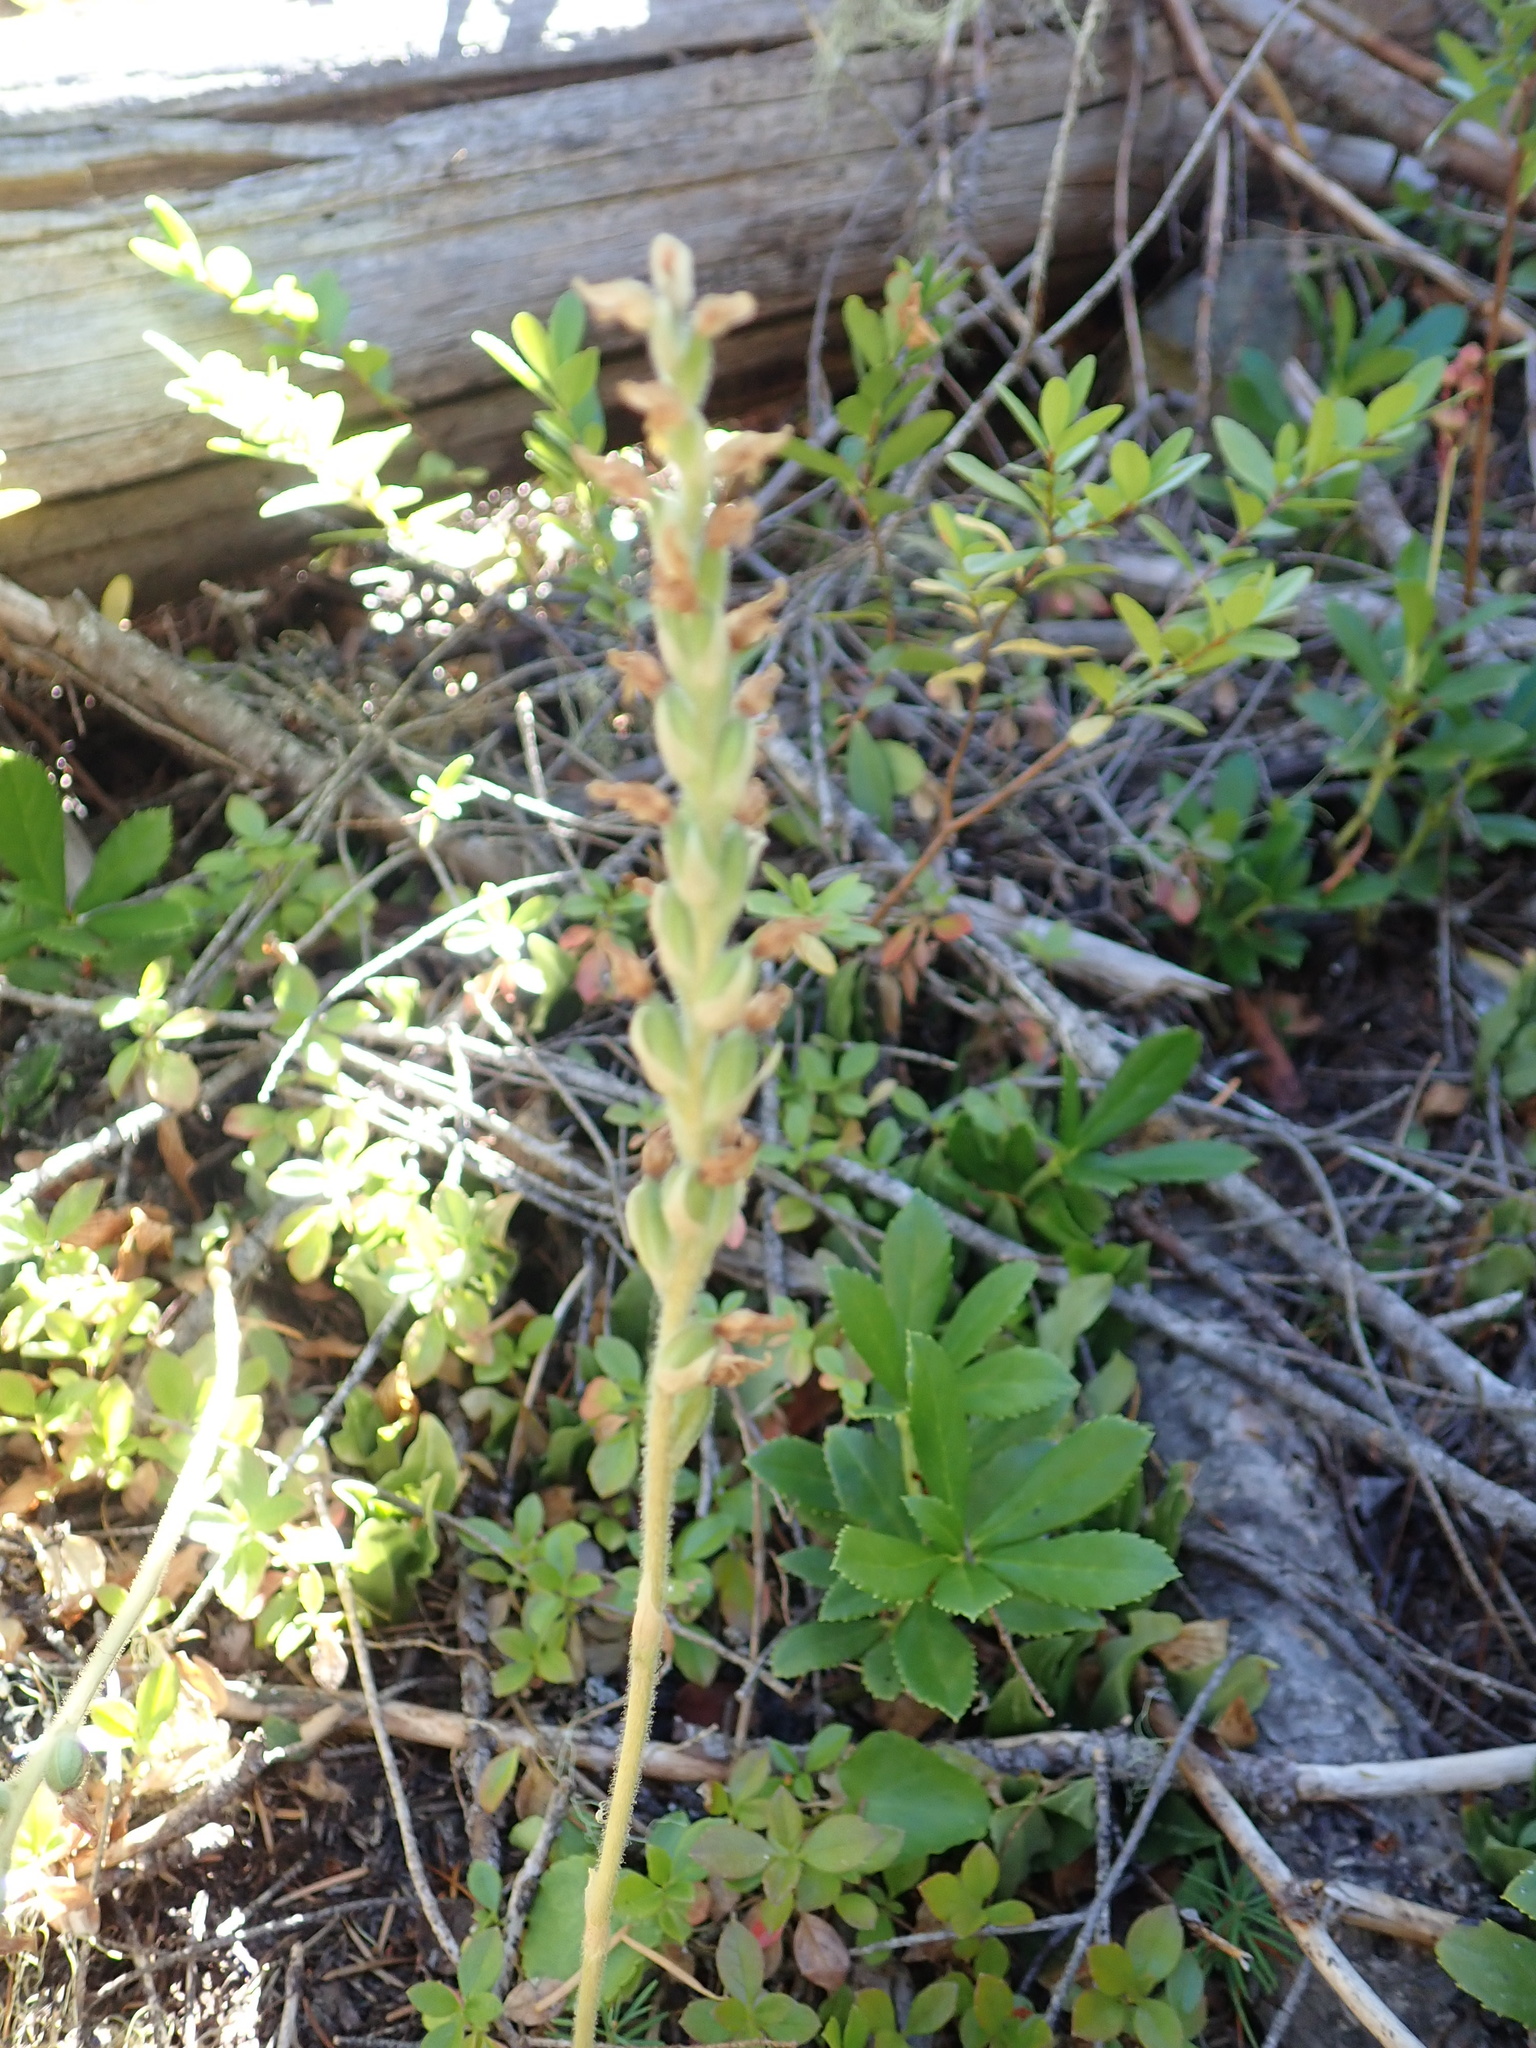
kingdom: Plantae
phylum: Tracheophyta
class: Liliopsida
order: Asparagales
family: Orchidaceae
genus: Goodyera
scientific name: Goodyera oblongifolia
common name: Giant rattlesnake-plantain
